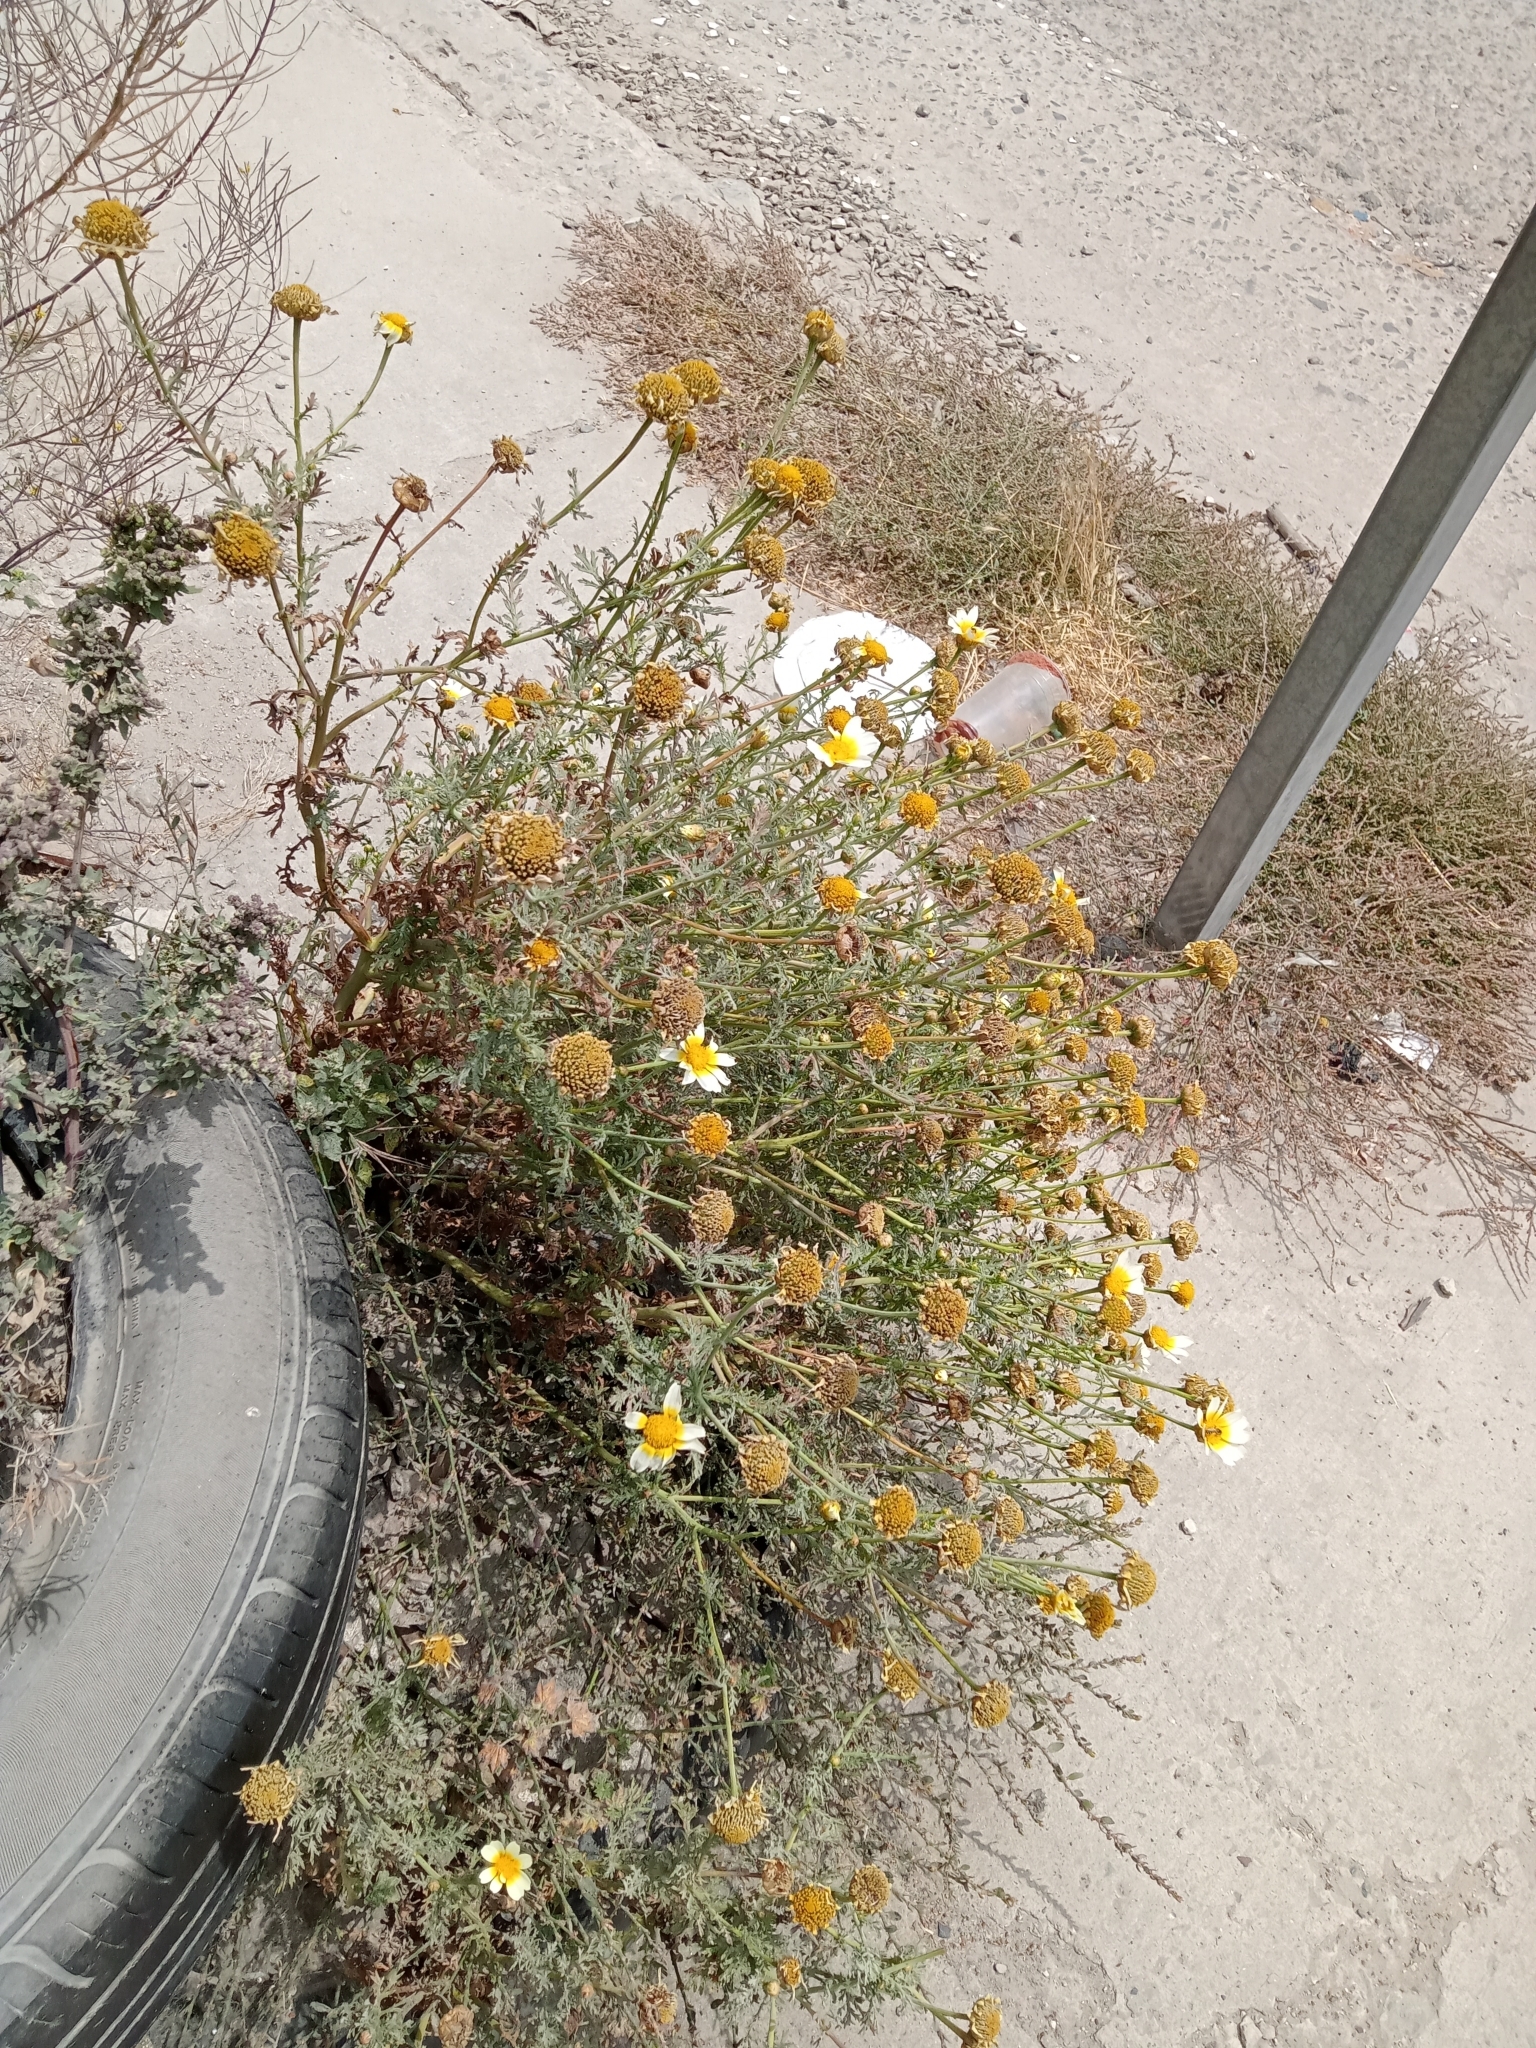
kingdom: Plantae
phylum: Tracheophyta
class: Magnoliopsida
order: Asterales
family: Asteraceae
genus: Glebionis
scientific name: Glebionis coronaria
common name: Crowndaisy
